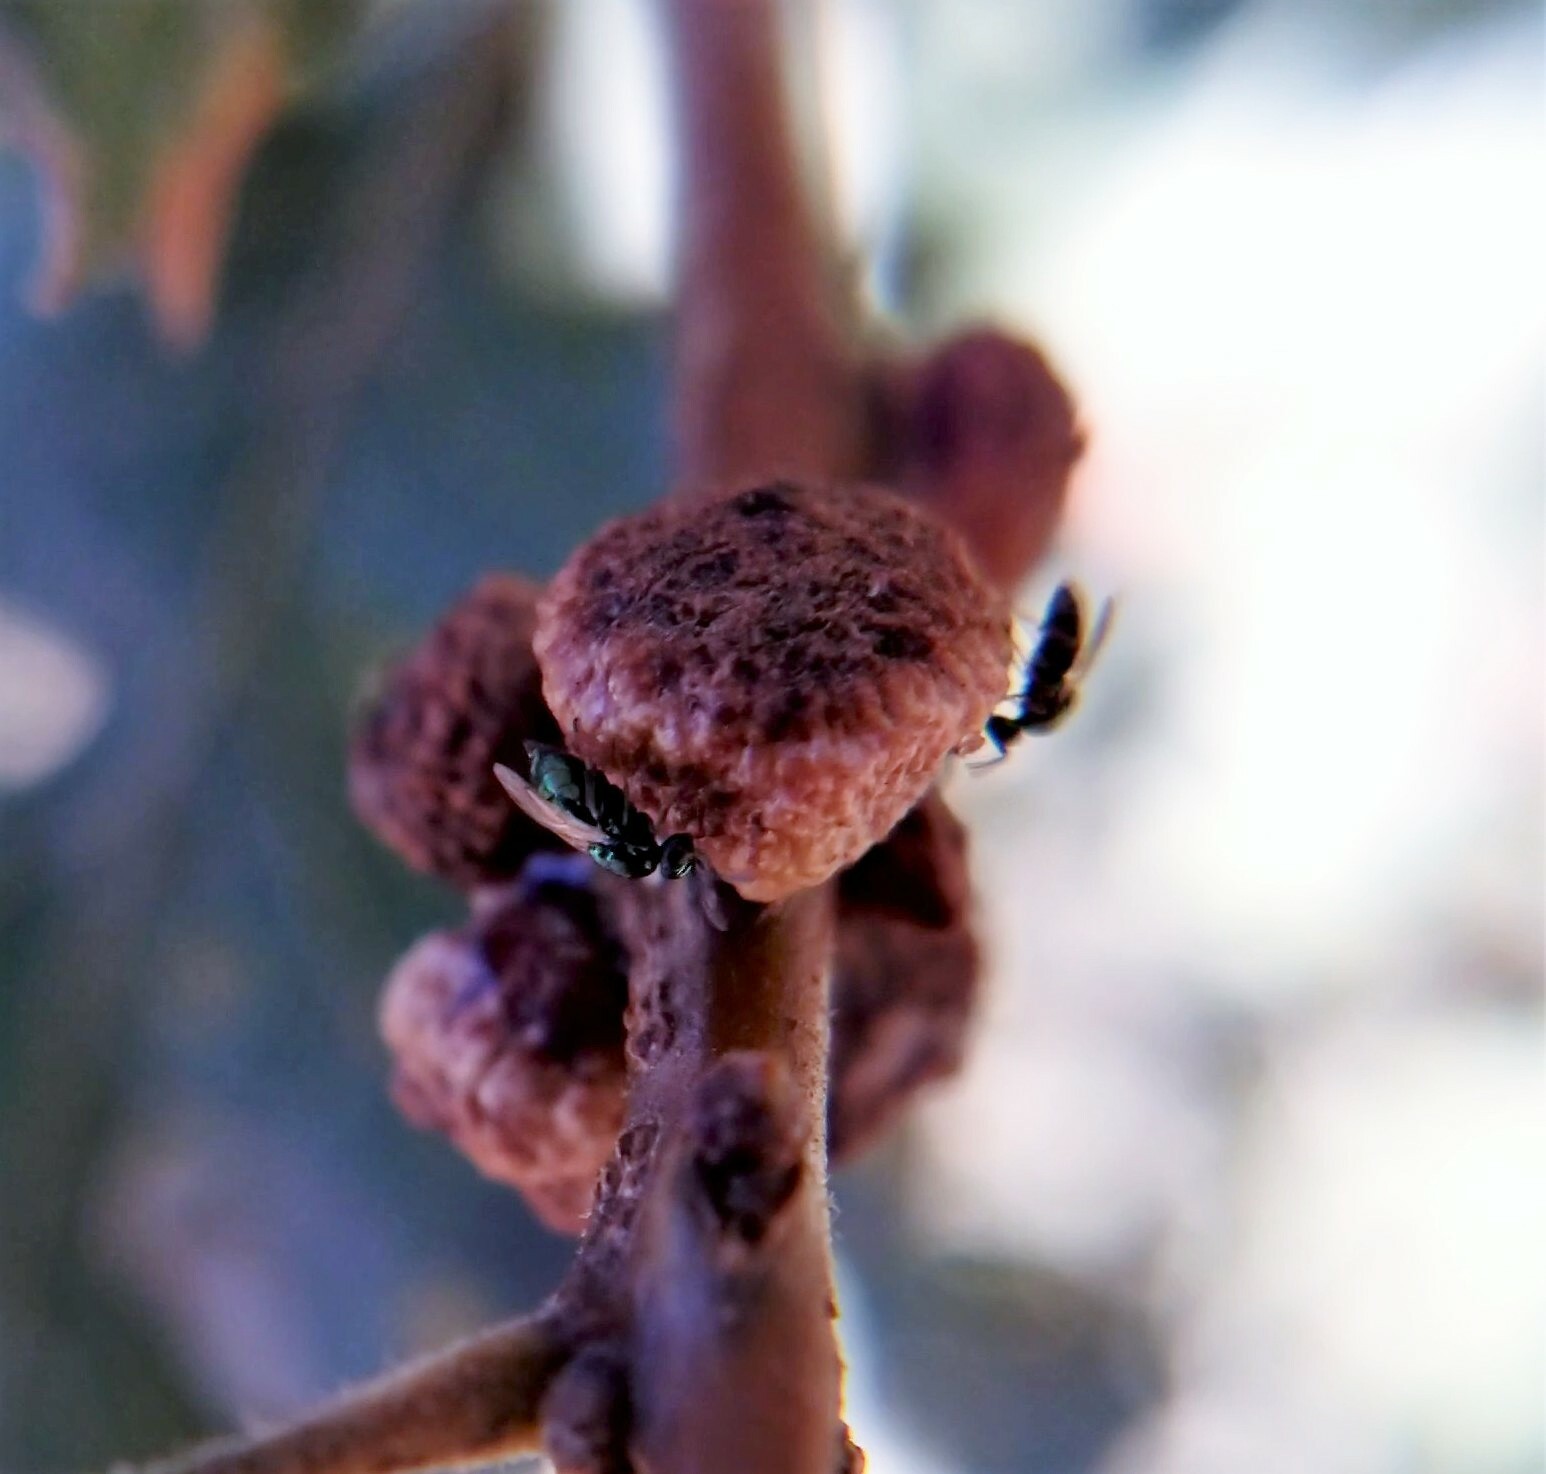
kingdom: Animalia
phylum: Arthropoda
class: Insecta
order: Hymenoptera
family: Cynipidae
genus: Disholcaspis
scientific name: Disholcaspis
